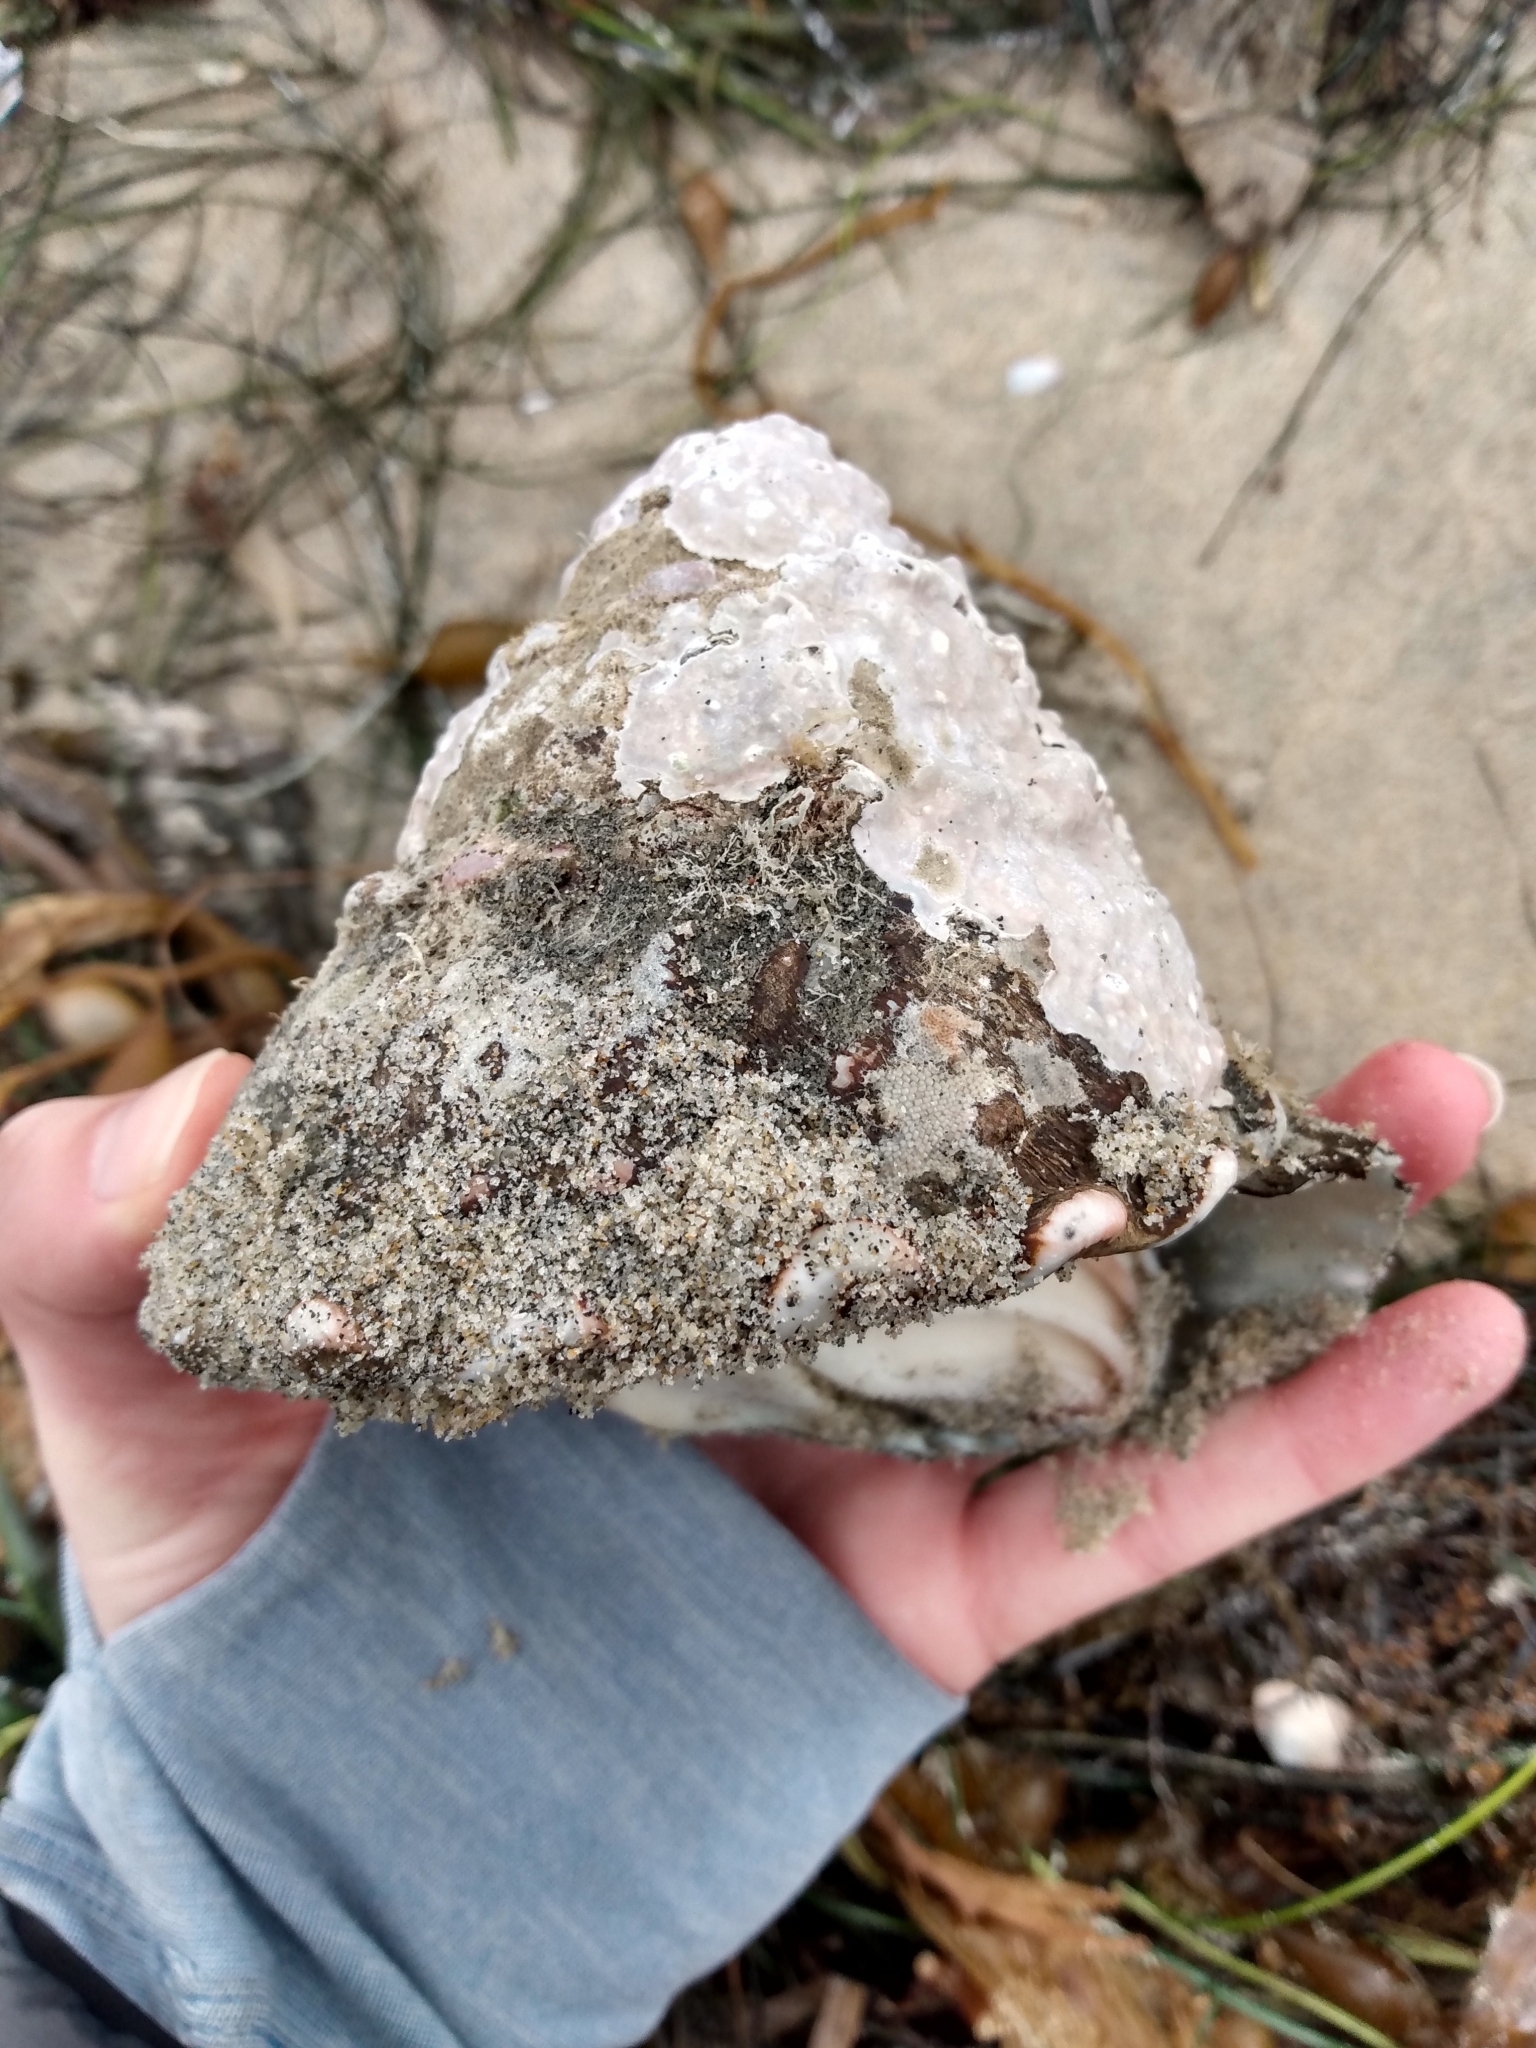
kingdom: Animalia
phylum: Mollusca
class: Gastropoda
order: Trochida
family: Turbinidae
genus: Megastraea
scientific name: Megastraea undosa
